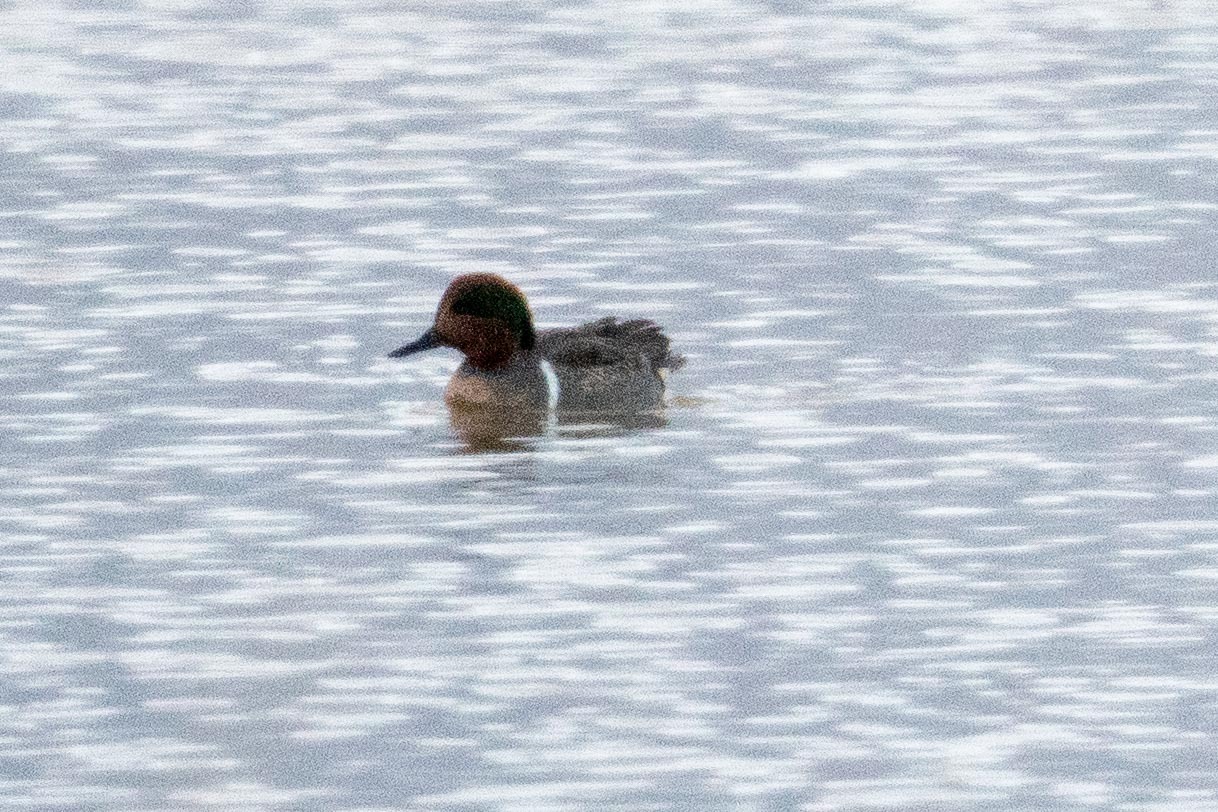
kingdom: Animalia
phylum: Chordata
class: Aves
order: Anseriformes
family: Anatidae
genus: Anas
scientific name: Anas crecca
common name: Eurasian teal
